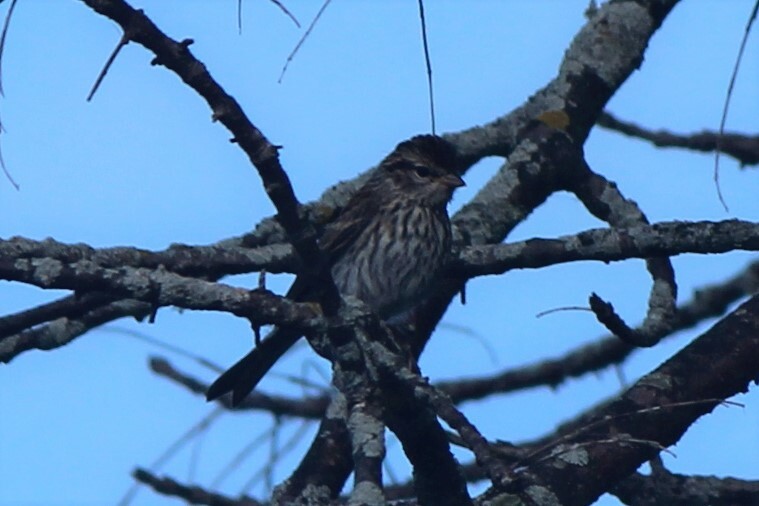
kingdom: Animalia
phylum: Chordata
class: Aves
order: Passeriformes
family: Icteridae
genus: Agelaius
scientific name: Agelaius phoeniceus
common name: Red-winged blackbird
